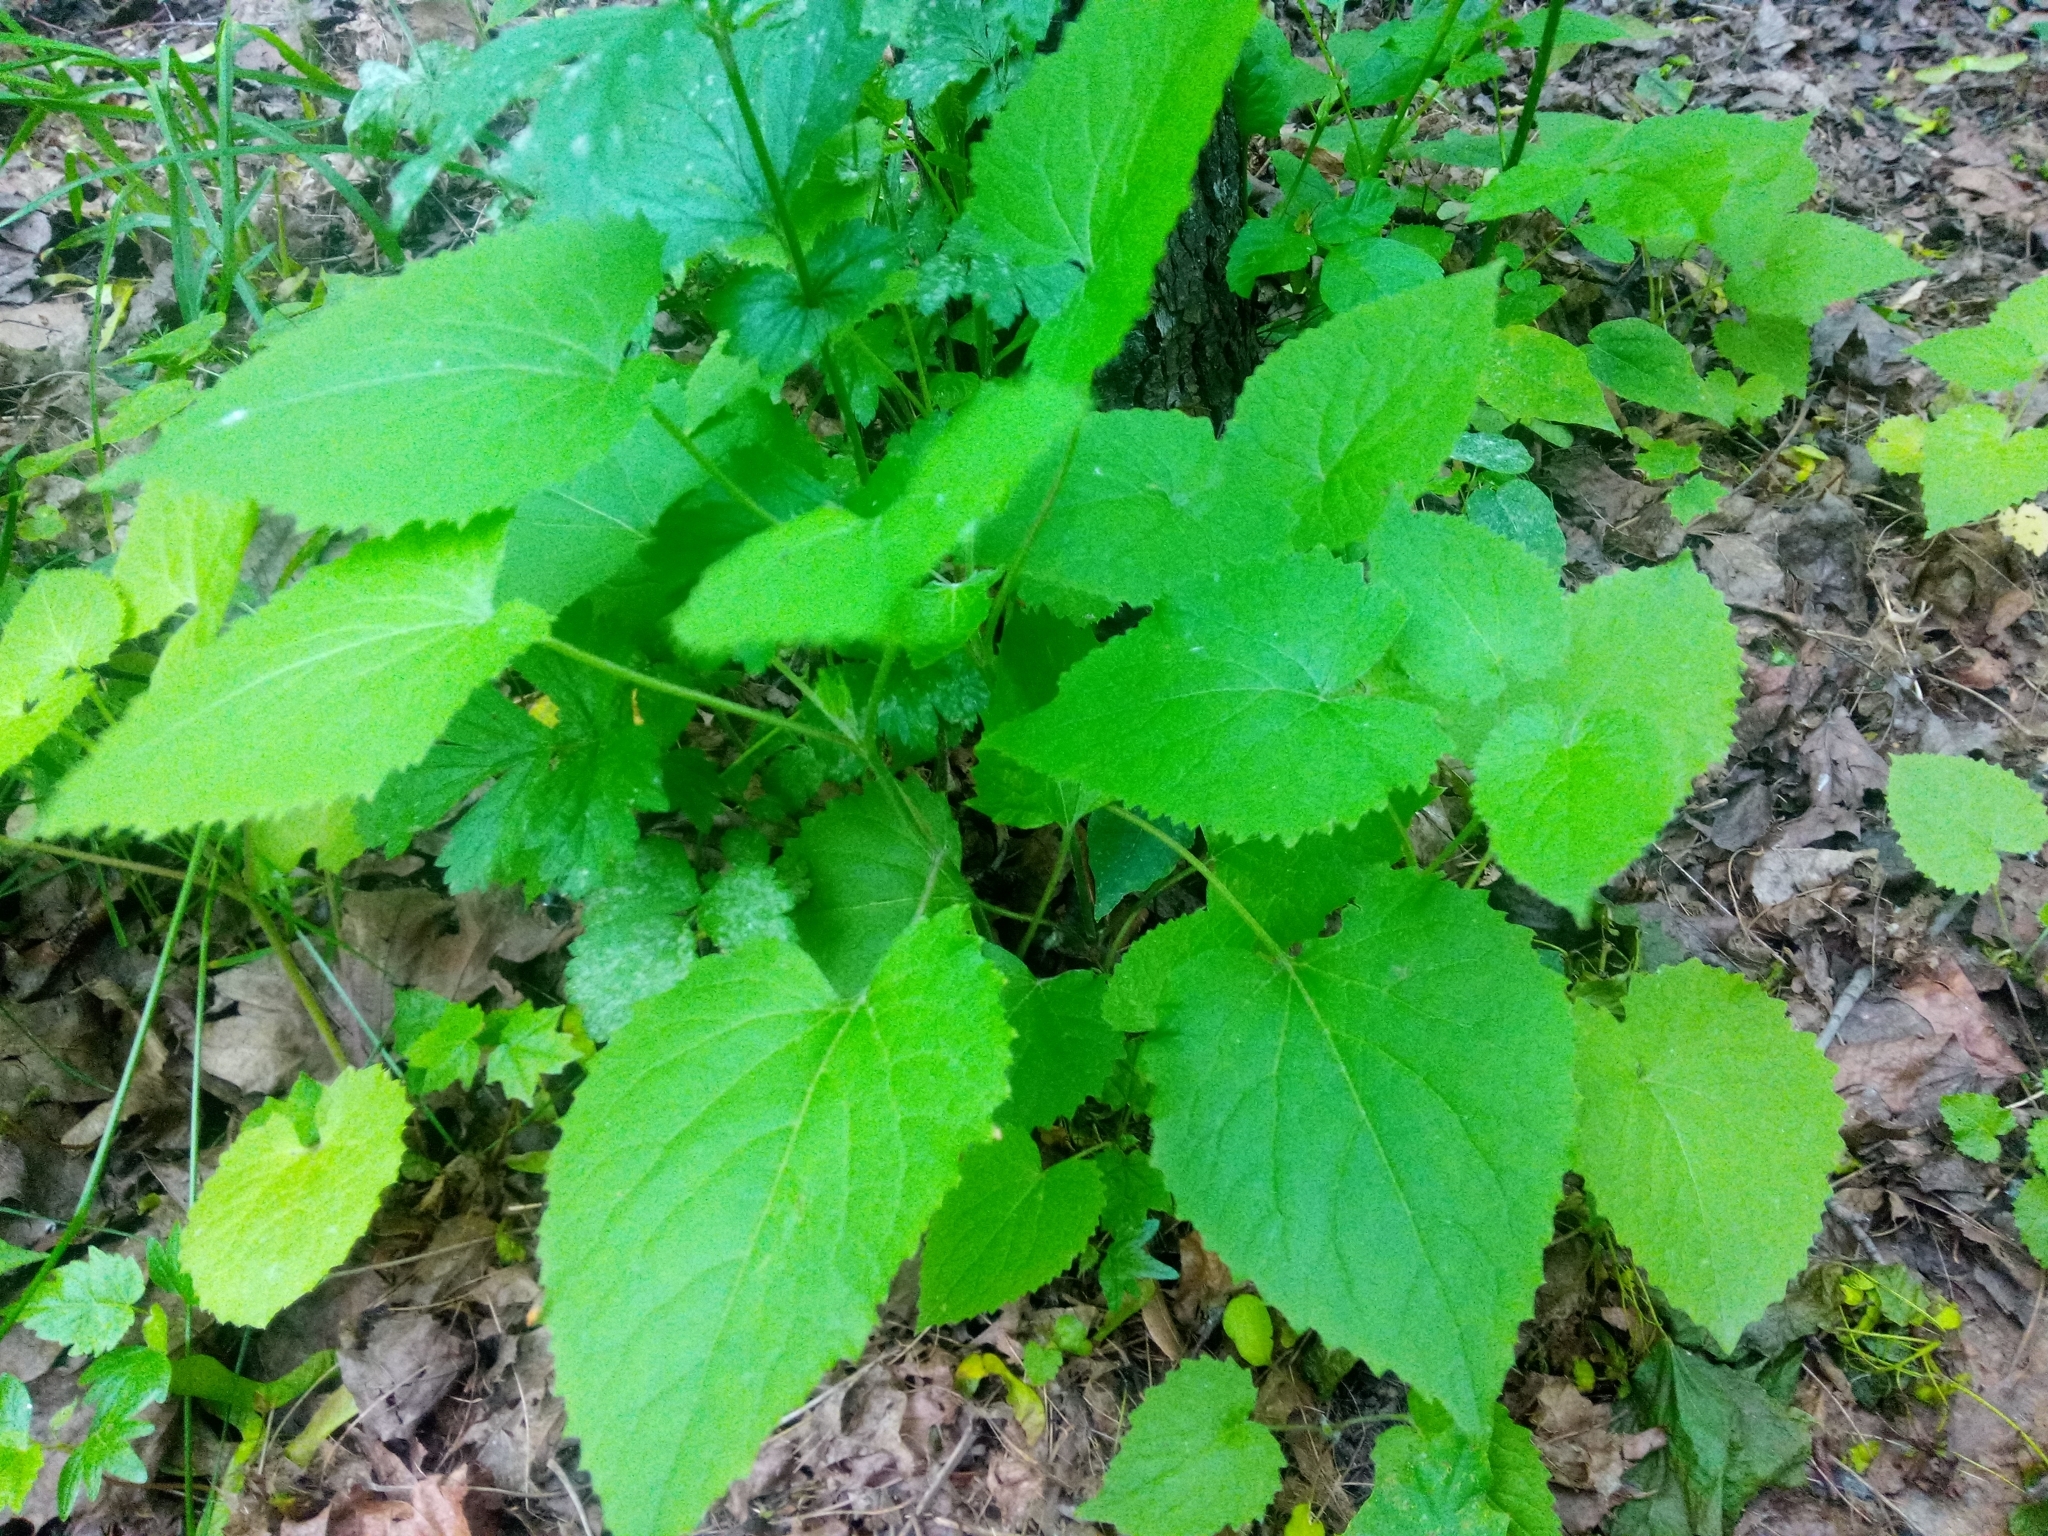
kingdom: Plantae
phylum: Tracheophyta
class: Magnoliopsida
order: Brassicales
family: Brassicaceae
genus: Lunaria
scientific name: Lunaria rediviva
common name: Perennial honesty
